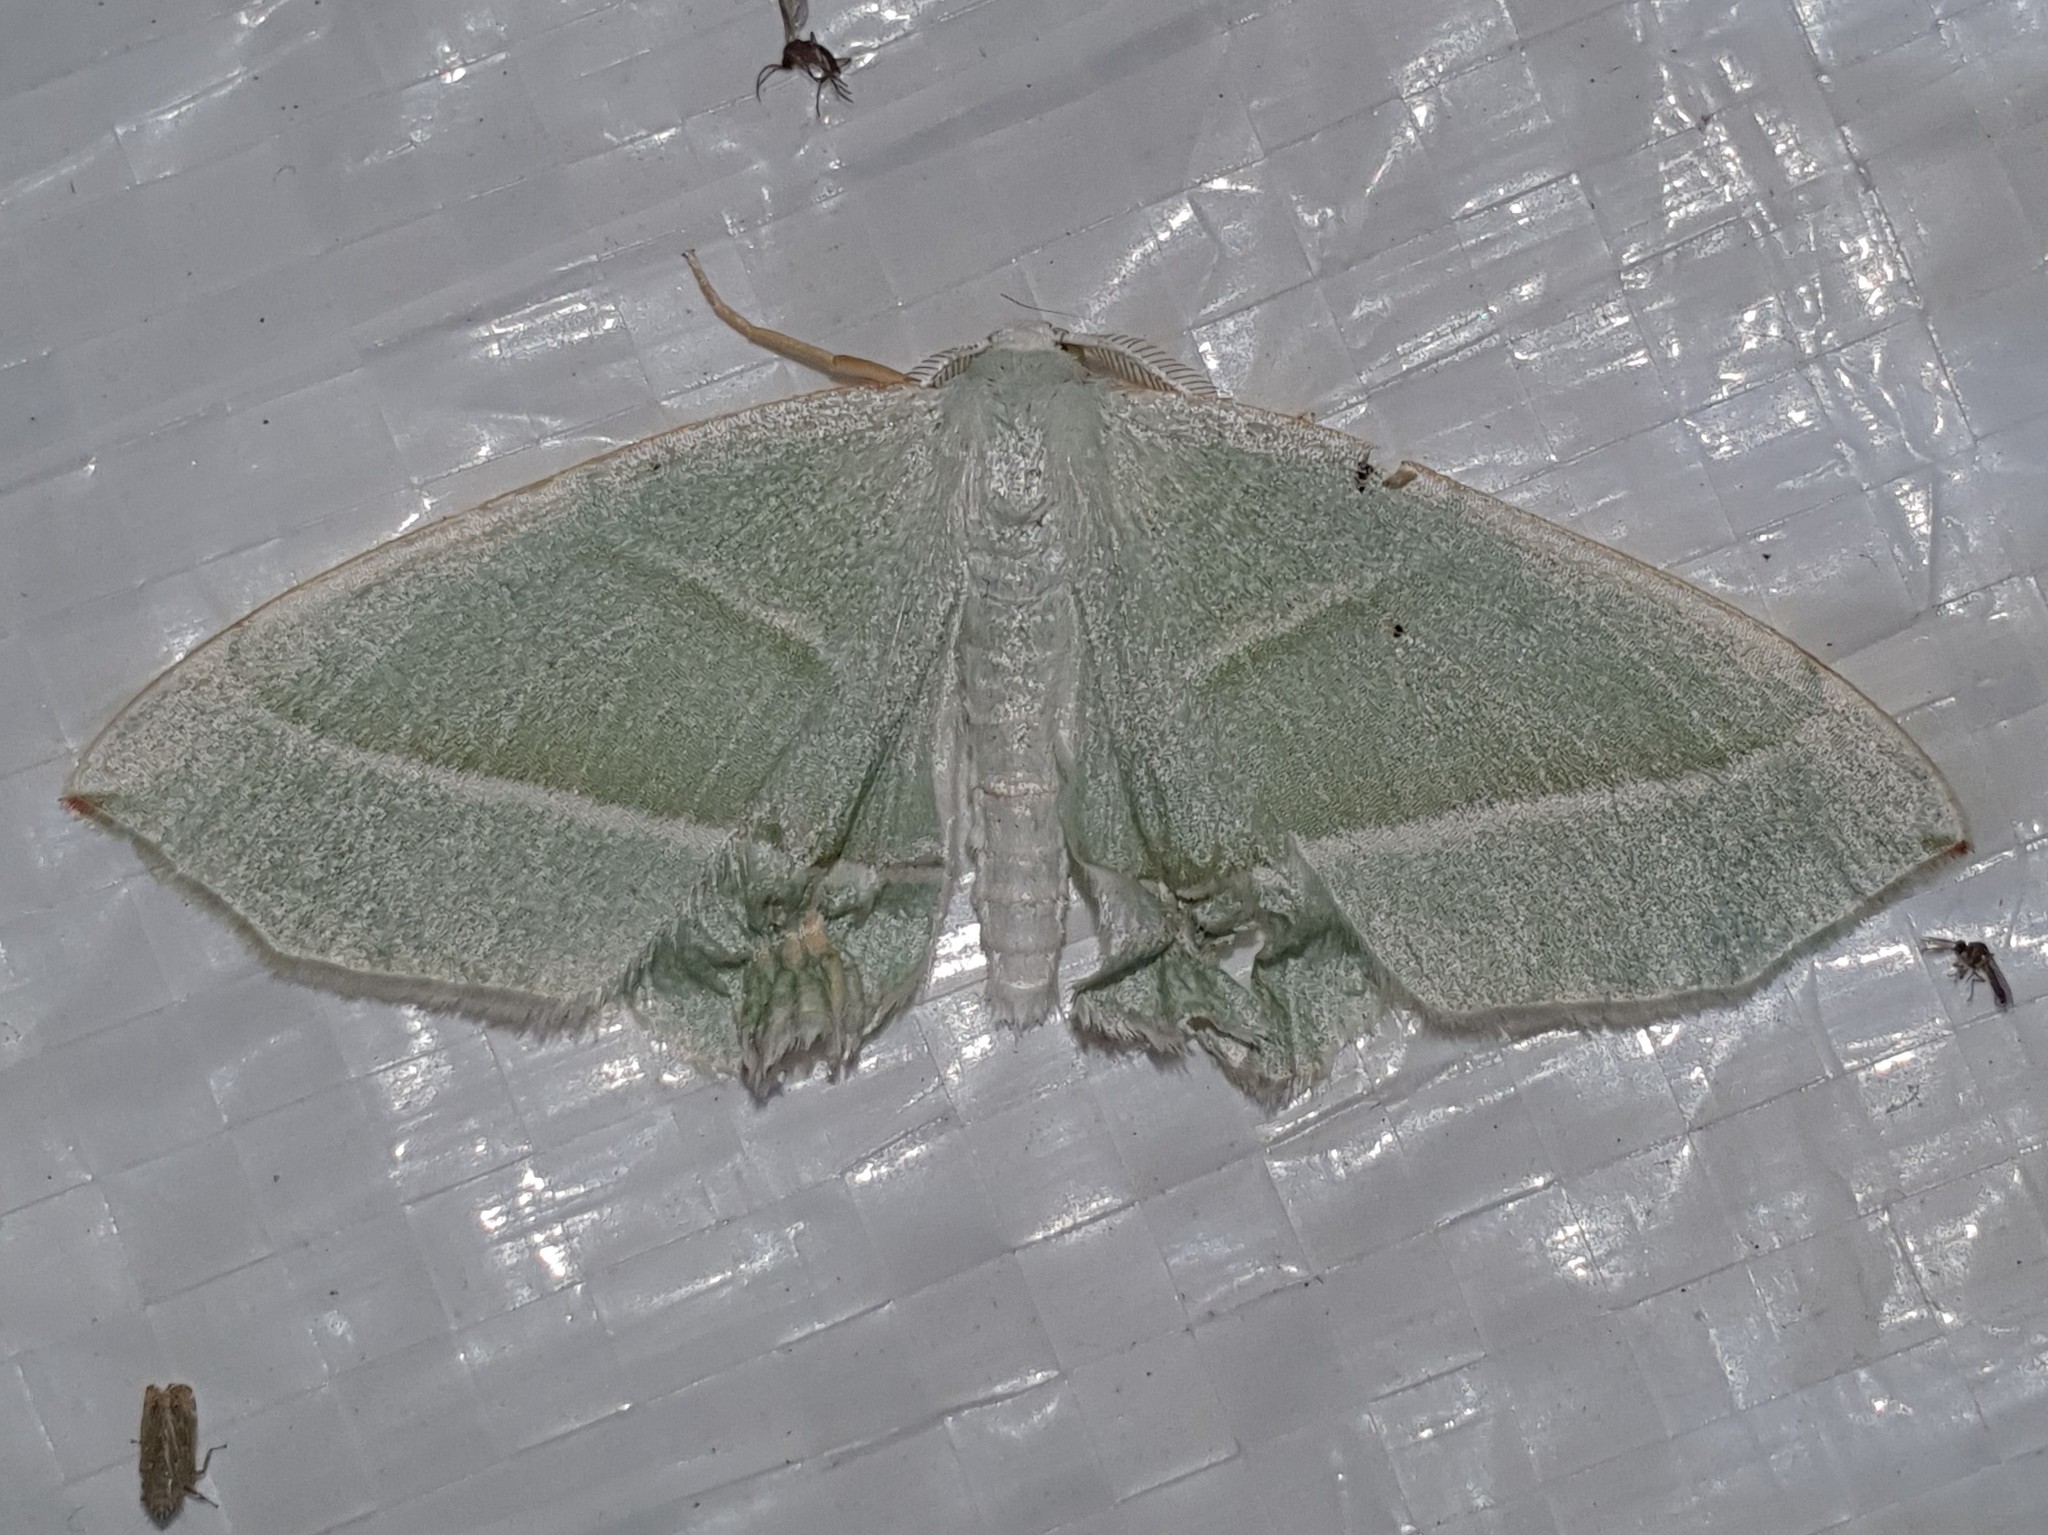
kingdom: Animalia
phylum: Arthropoda
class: Insecta
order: Lepidoptera
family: Geometridae
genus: Campaea
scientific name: Campaea margaritaria
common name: Light emerald
